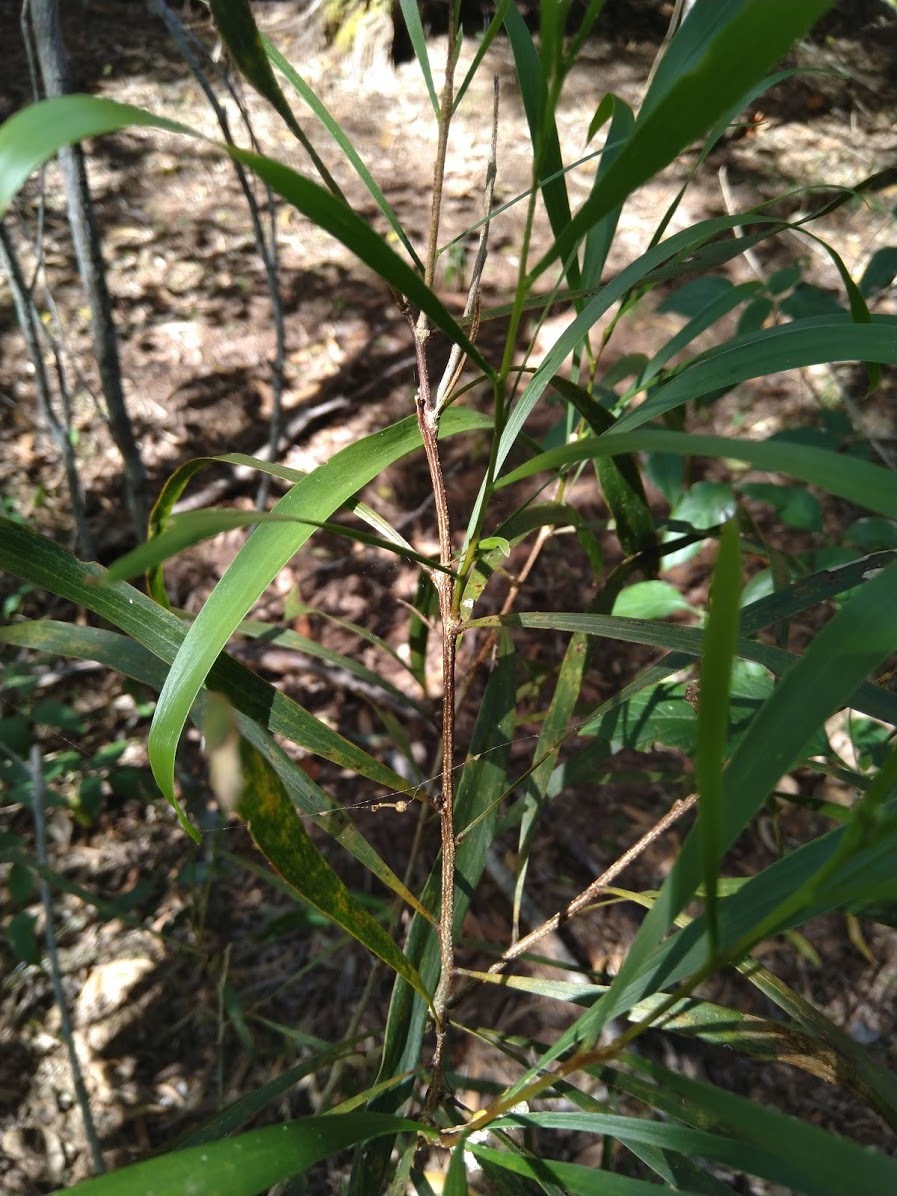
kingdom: Plantae
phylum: Tracheophyta
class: Magnoliopsida
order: Fabales
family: Fabaceae
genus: Acacia
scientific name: Acacia maidenii
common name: Maiden's wattle
